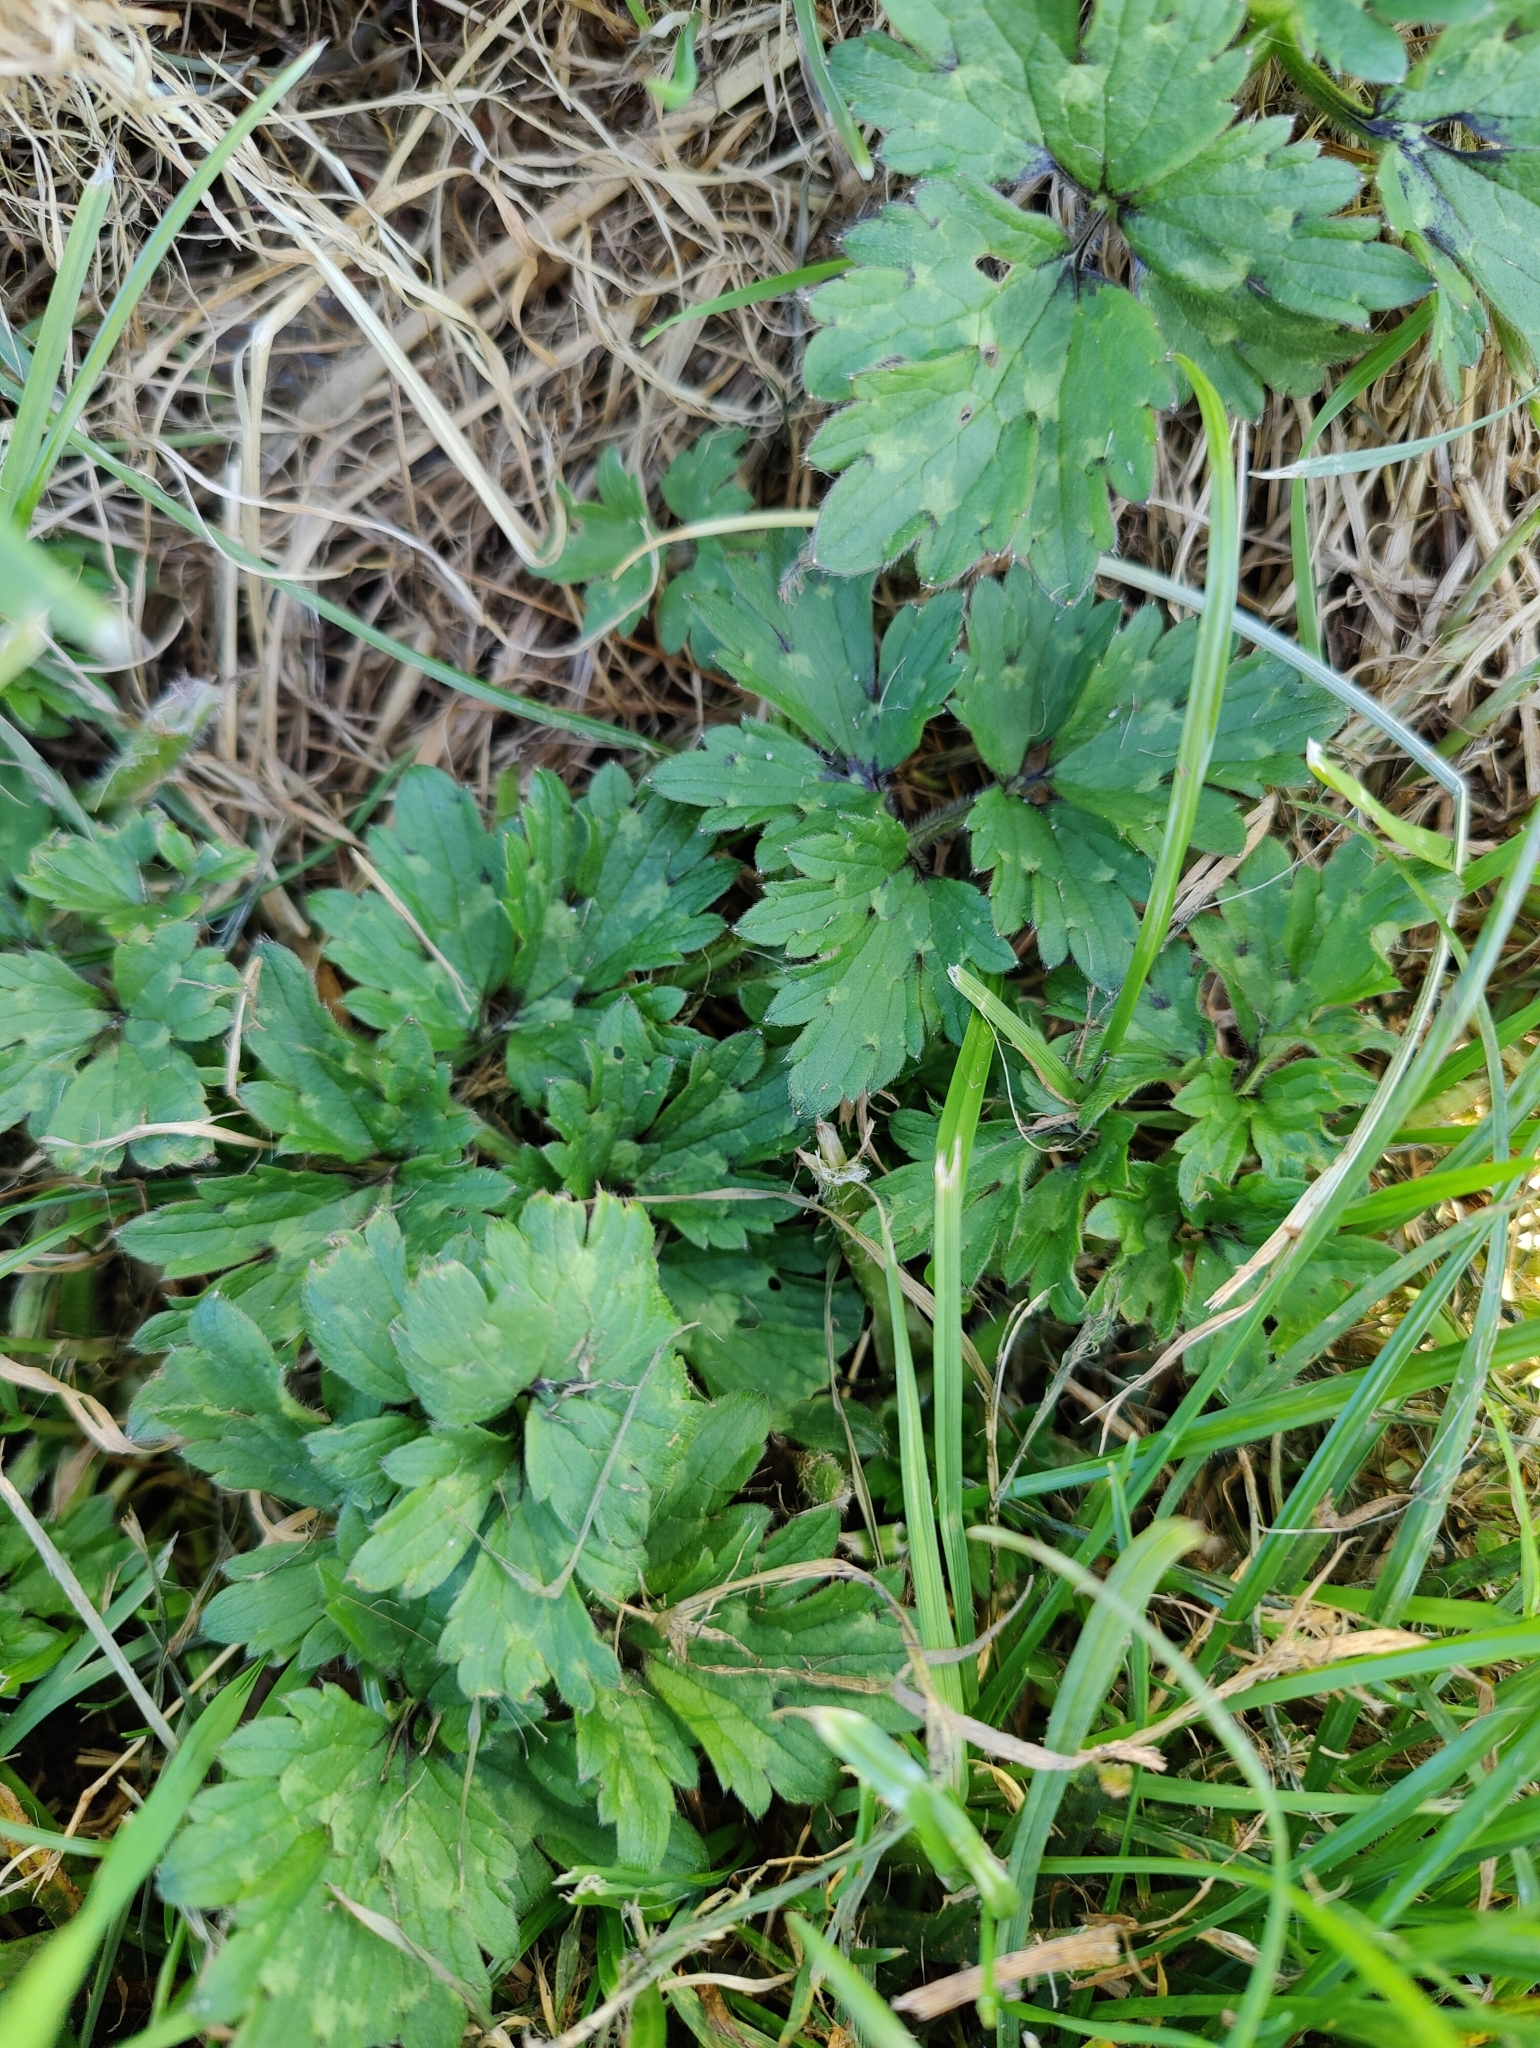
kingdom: Plantae
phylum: Tracheophyta
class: Magnoliopsida
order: Ranunculales
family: Ranunculaceae
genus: Ranunculus
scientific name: Ranunculus repens
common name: Creeping buttercup
